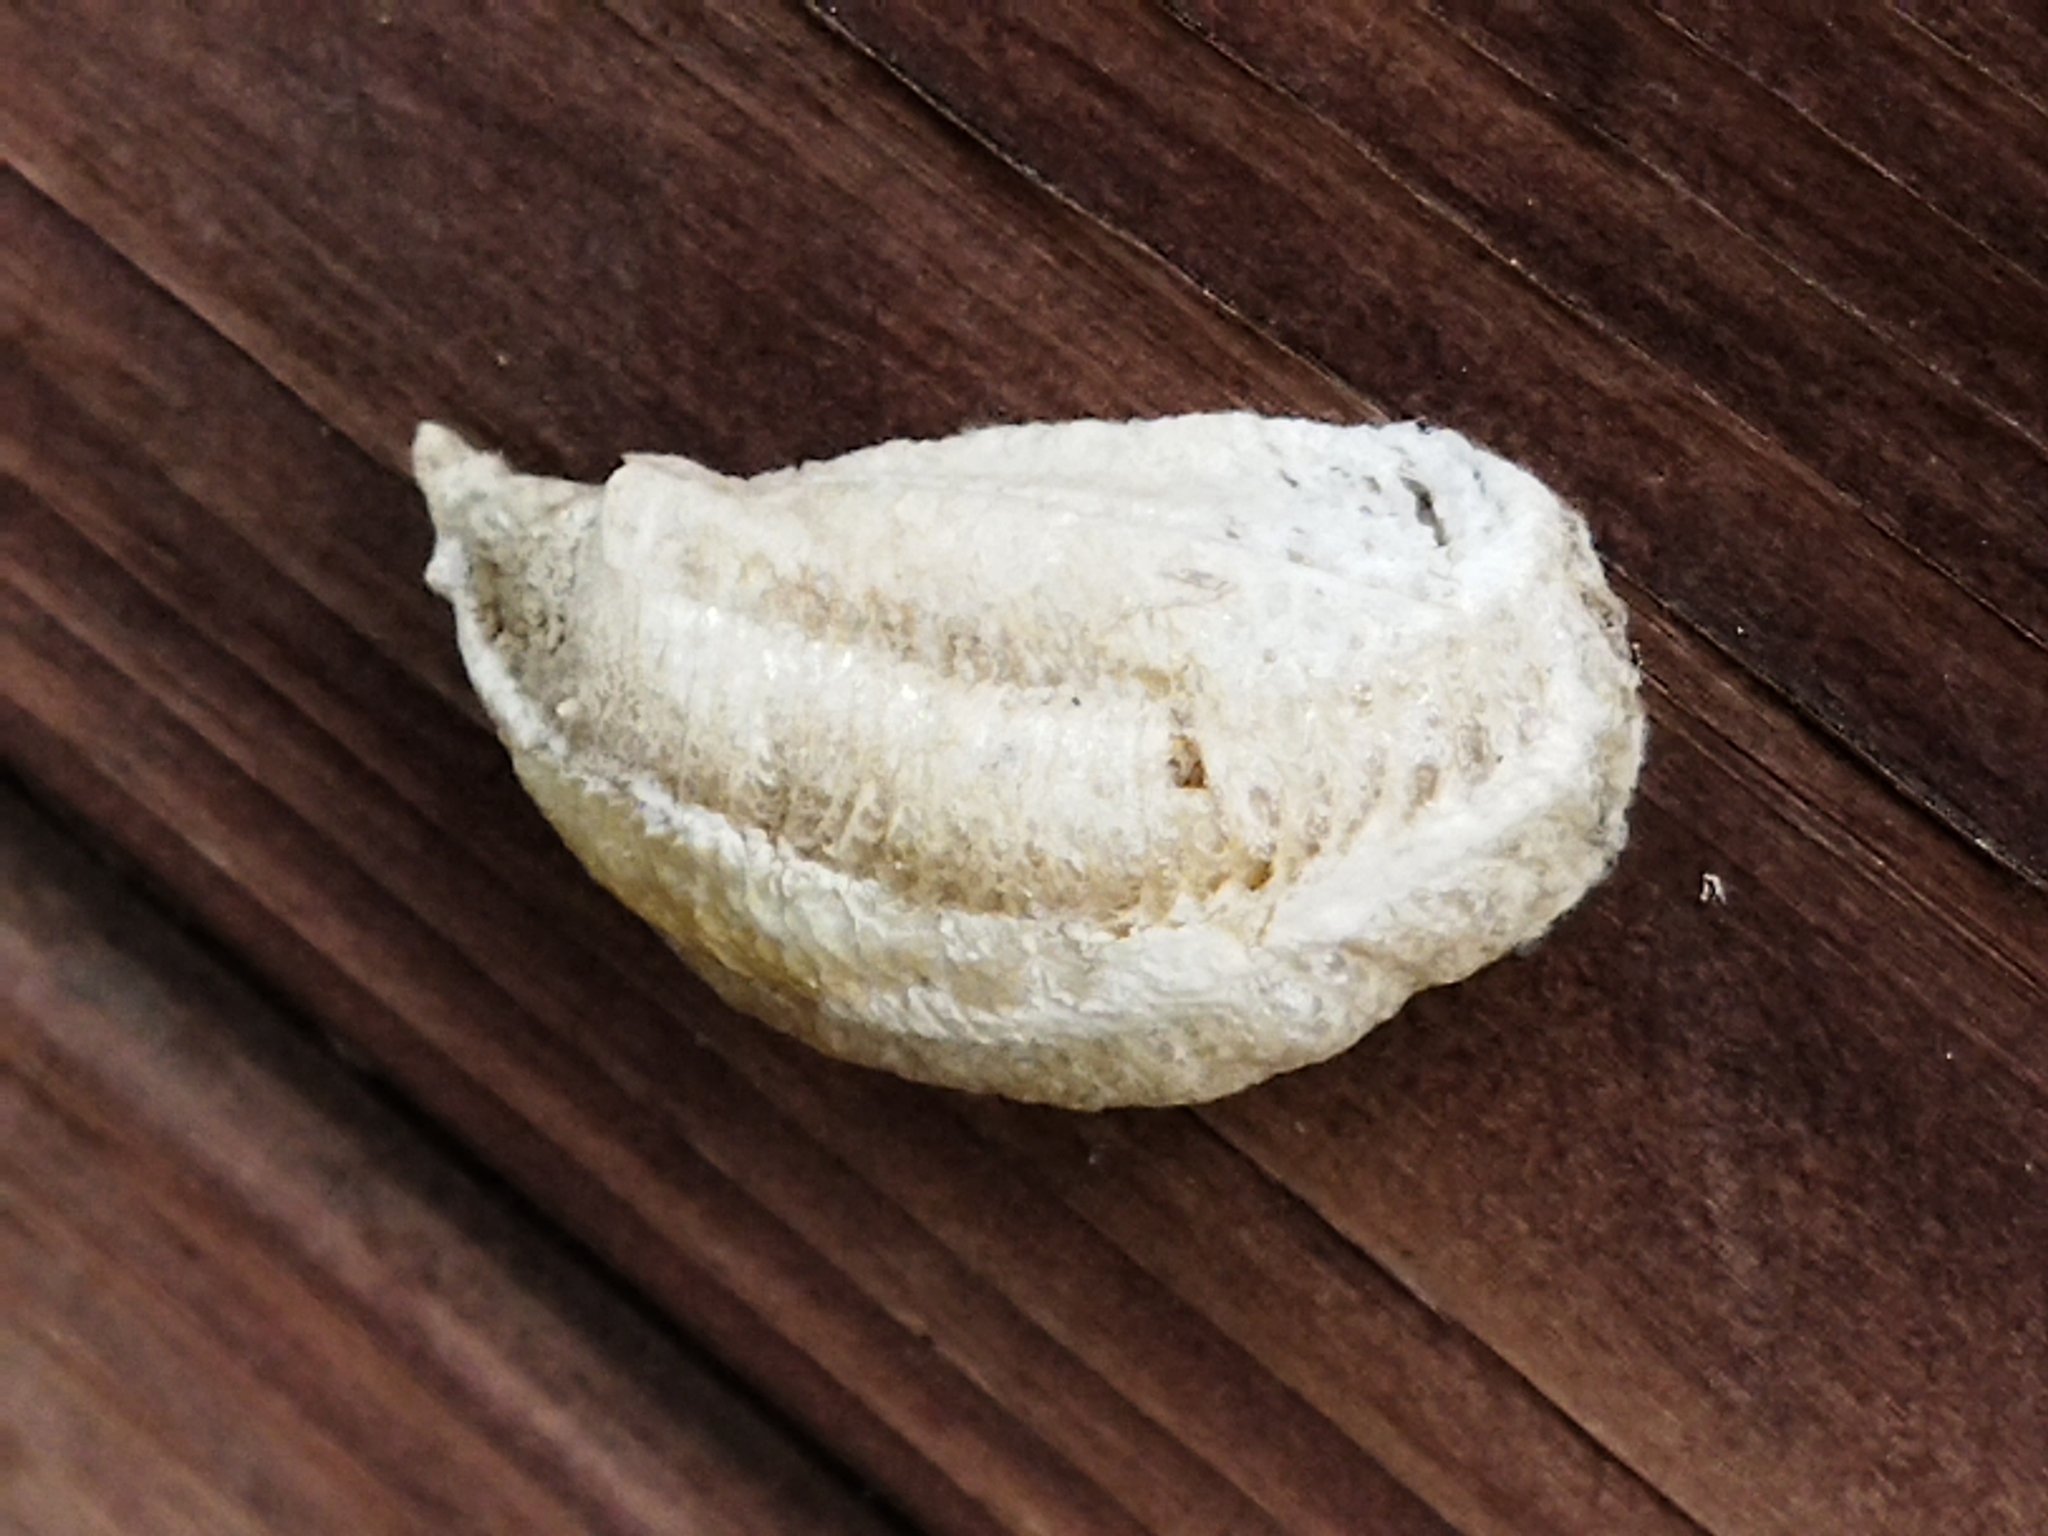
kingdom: Animalia
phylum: Arthropoda
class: Insecta
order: Mantodea
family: Mantidae
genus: Mantis
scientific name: Mantis religiosa
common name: Praying mantis
